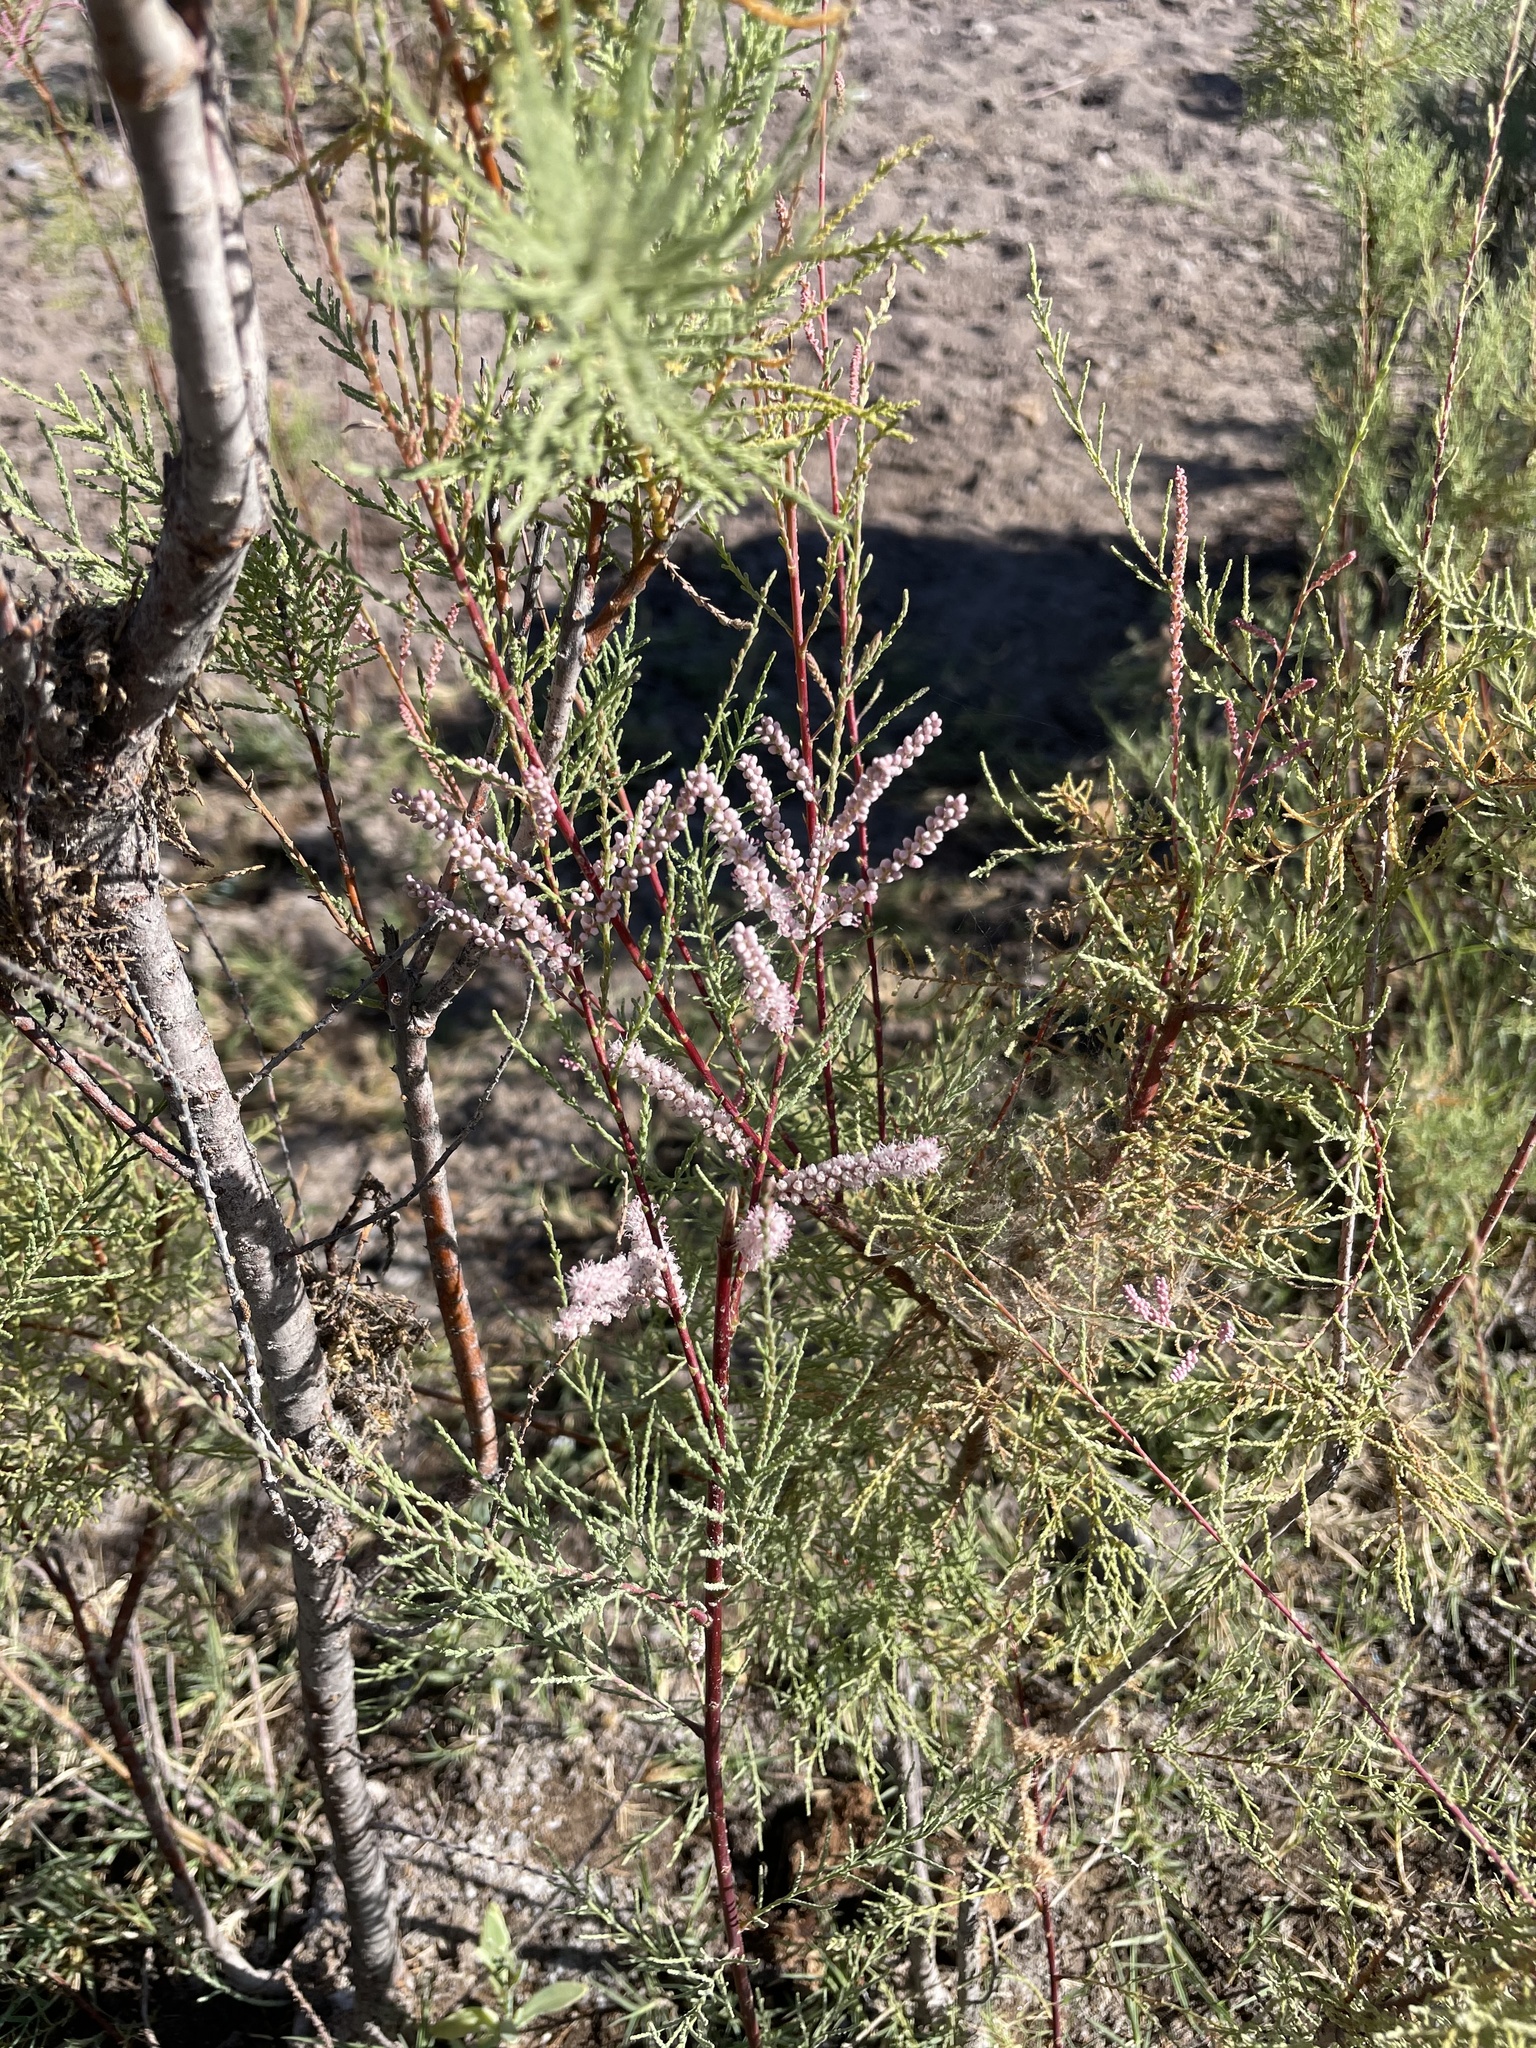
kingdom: Plantae
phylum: Tracheophyta
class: Magnoliopsida
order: Caryophyllales
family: Tamaricaceae
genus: Tamarix
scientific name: Tamarix ramosissima
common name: Pink tamarisk
